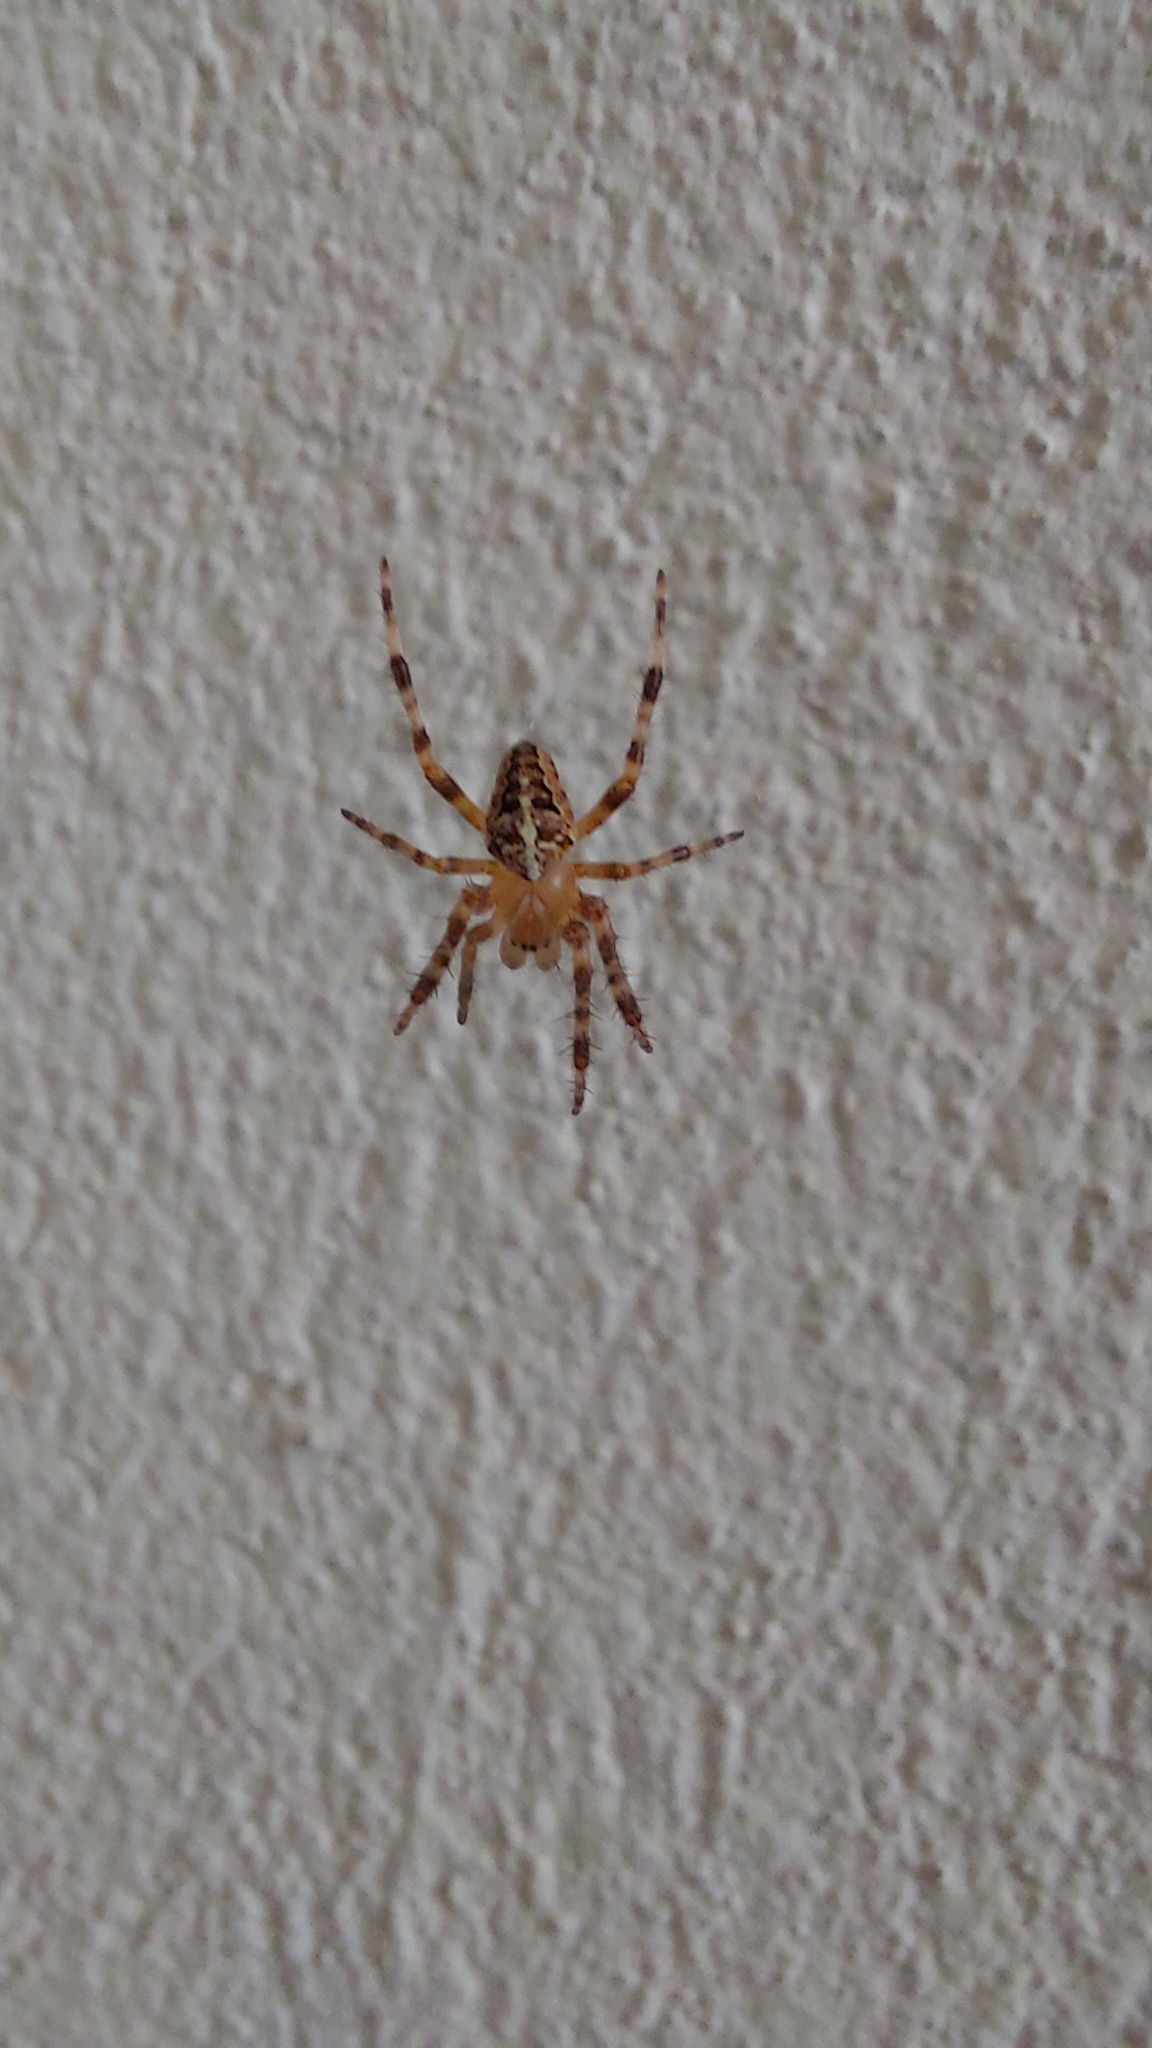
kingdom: Animalia
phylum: Arthropoda
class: Arachnida
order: Araneae
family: Araneidae
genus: Araneus
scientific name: Araneus diadematus
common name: Cross orbweaver
